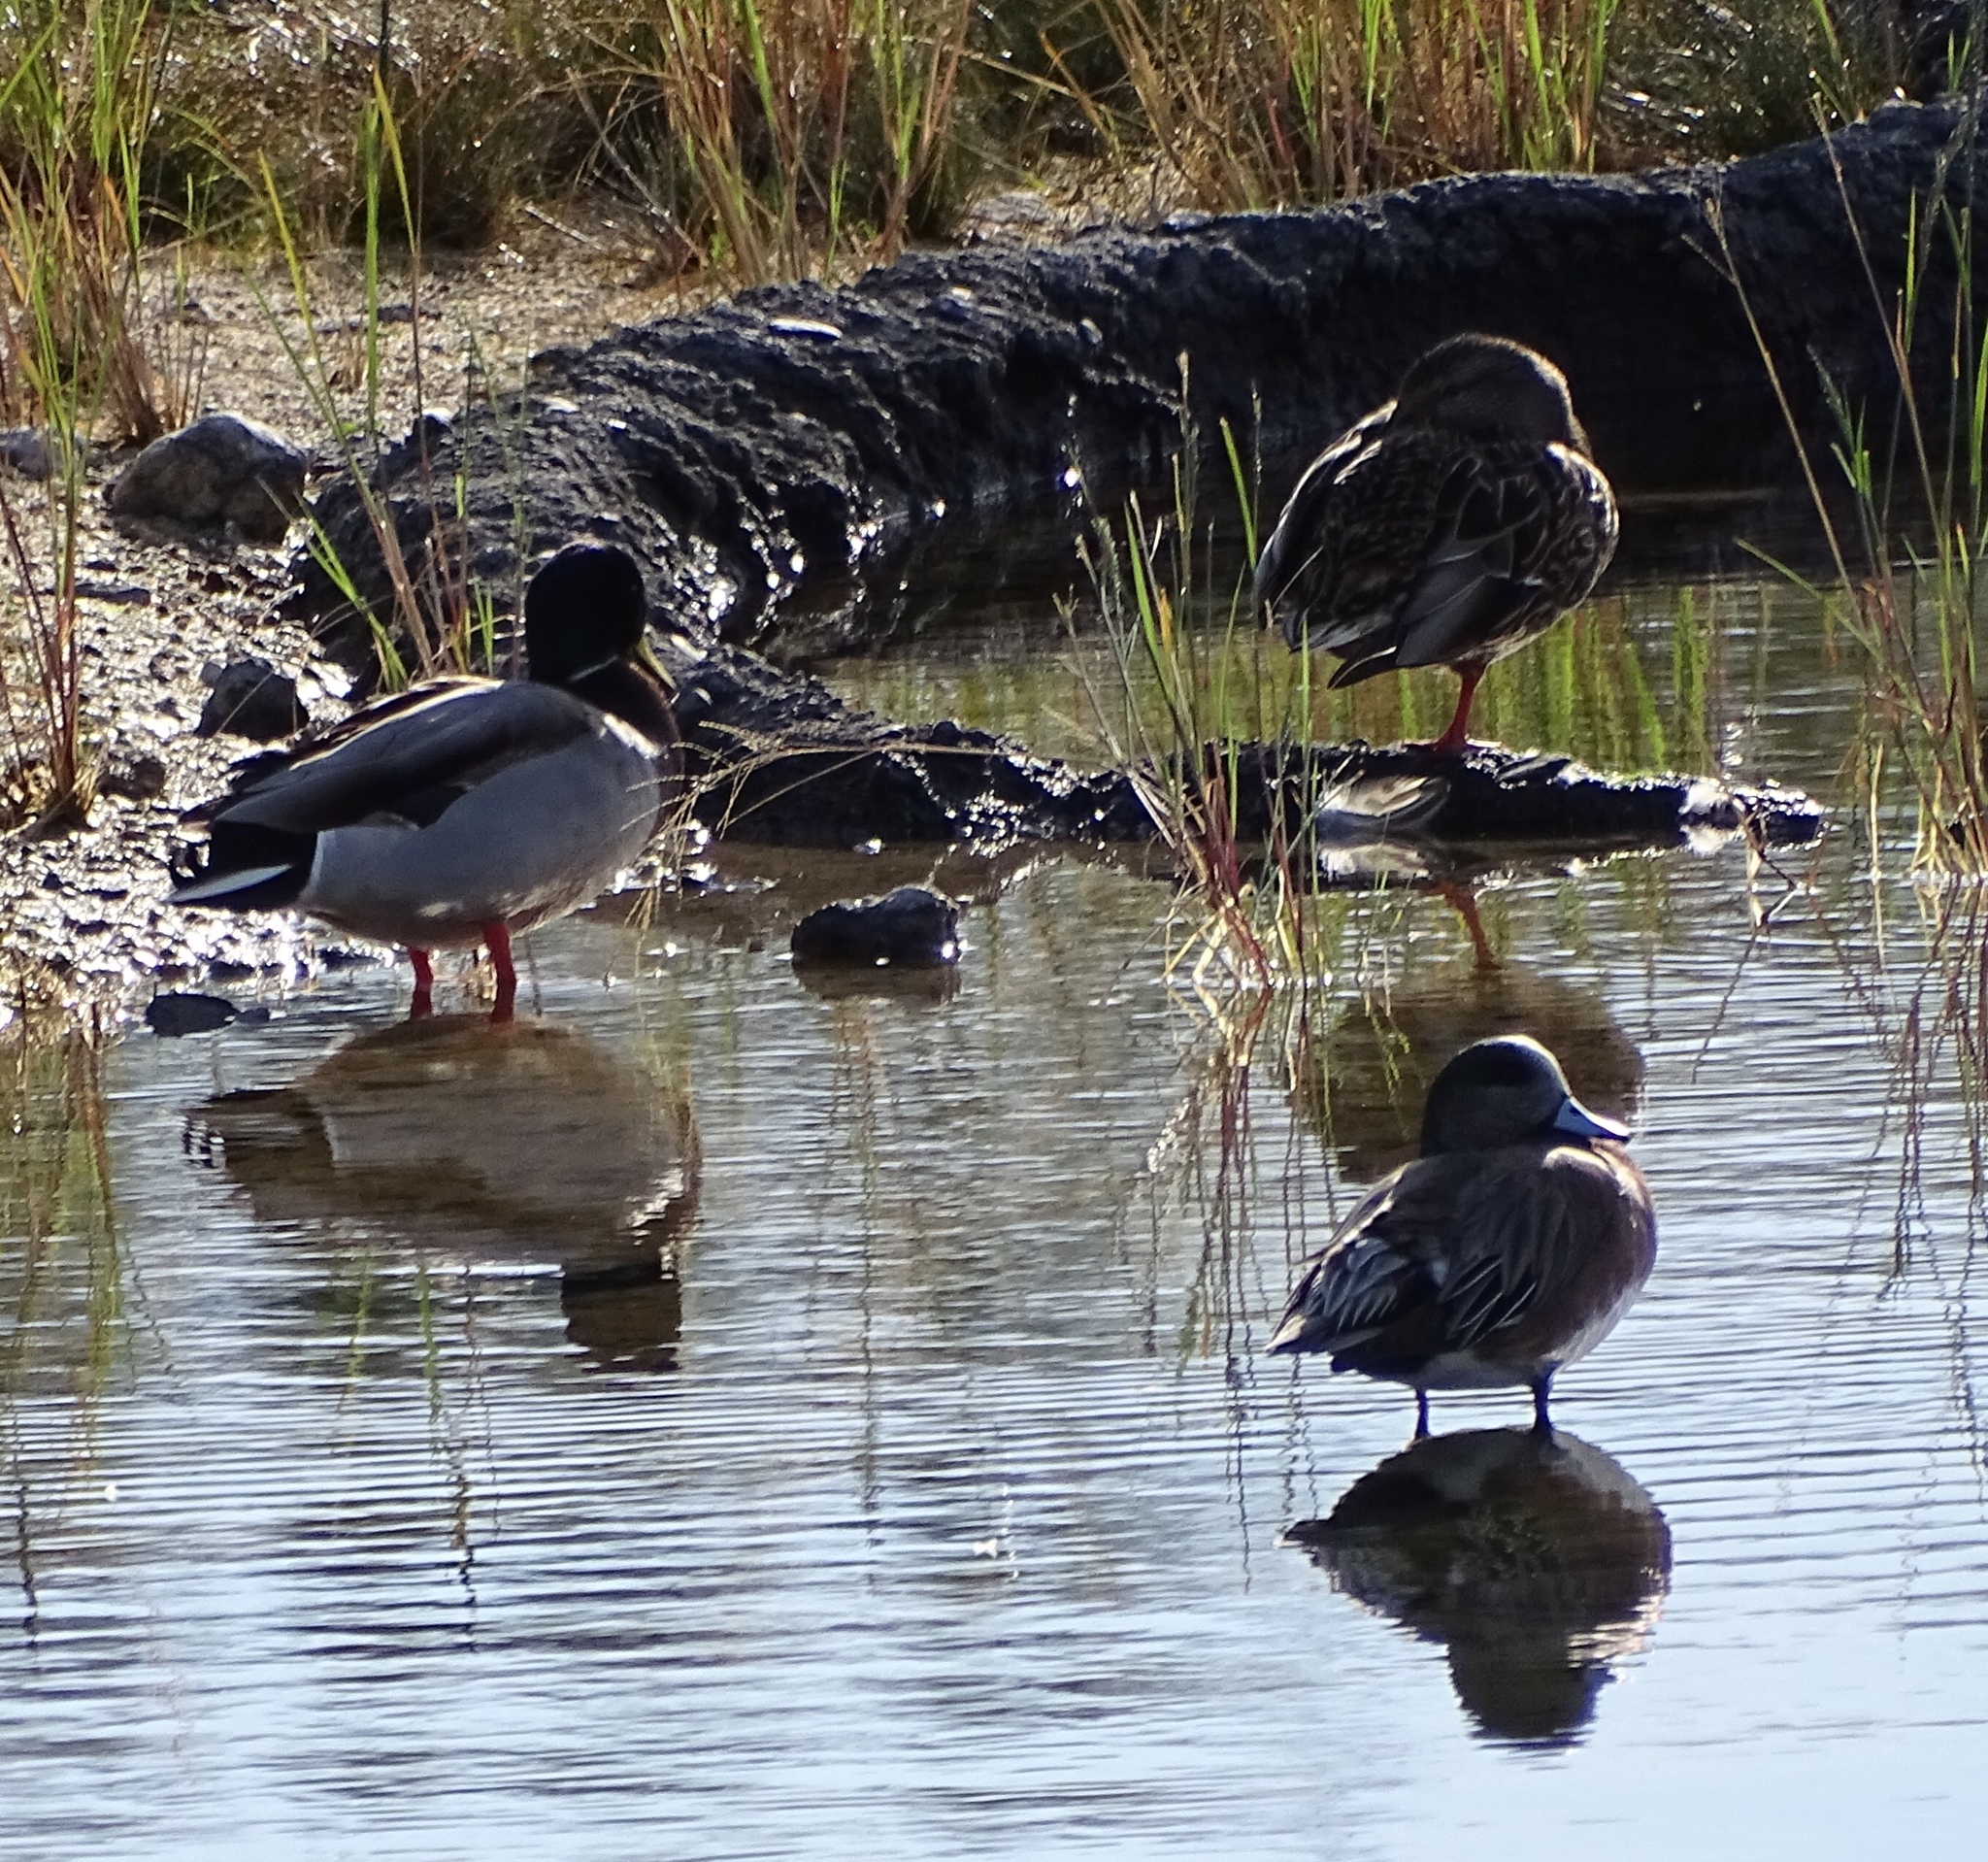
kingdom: Animalia
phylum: Chordata
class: Aves
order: Anseriformes
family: Anatidae
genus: Anas
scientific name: Anas platyrhynchos
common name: Mallard
